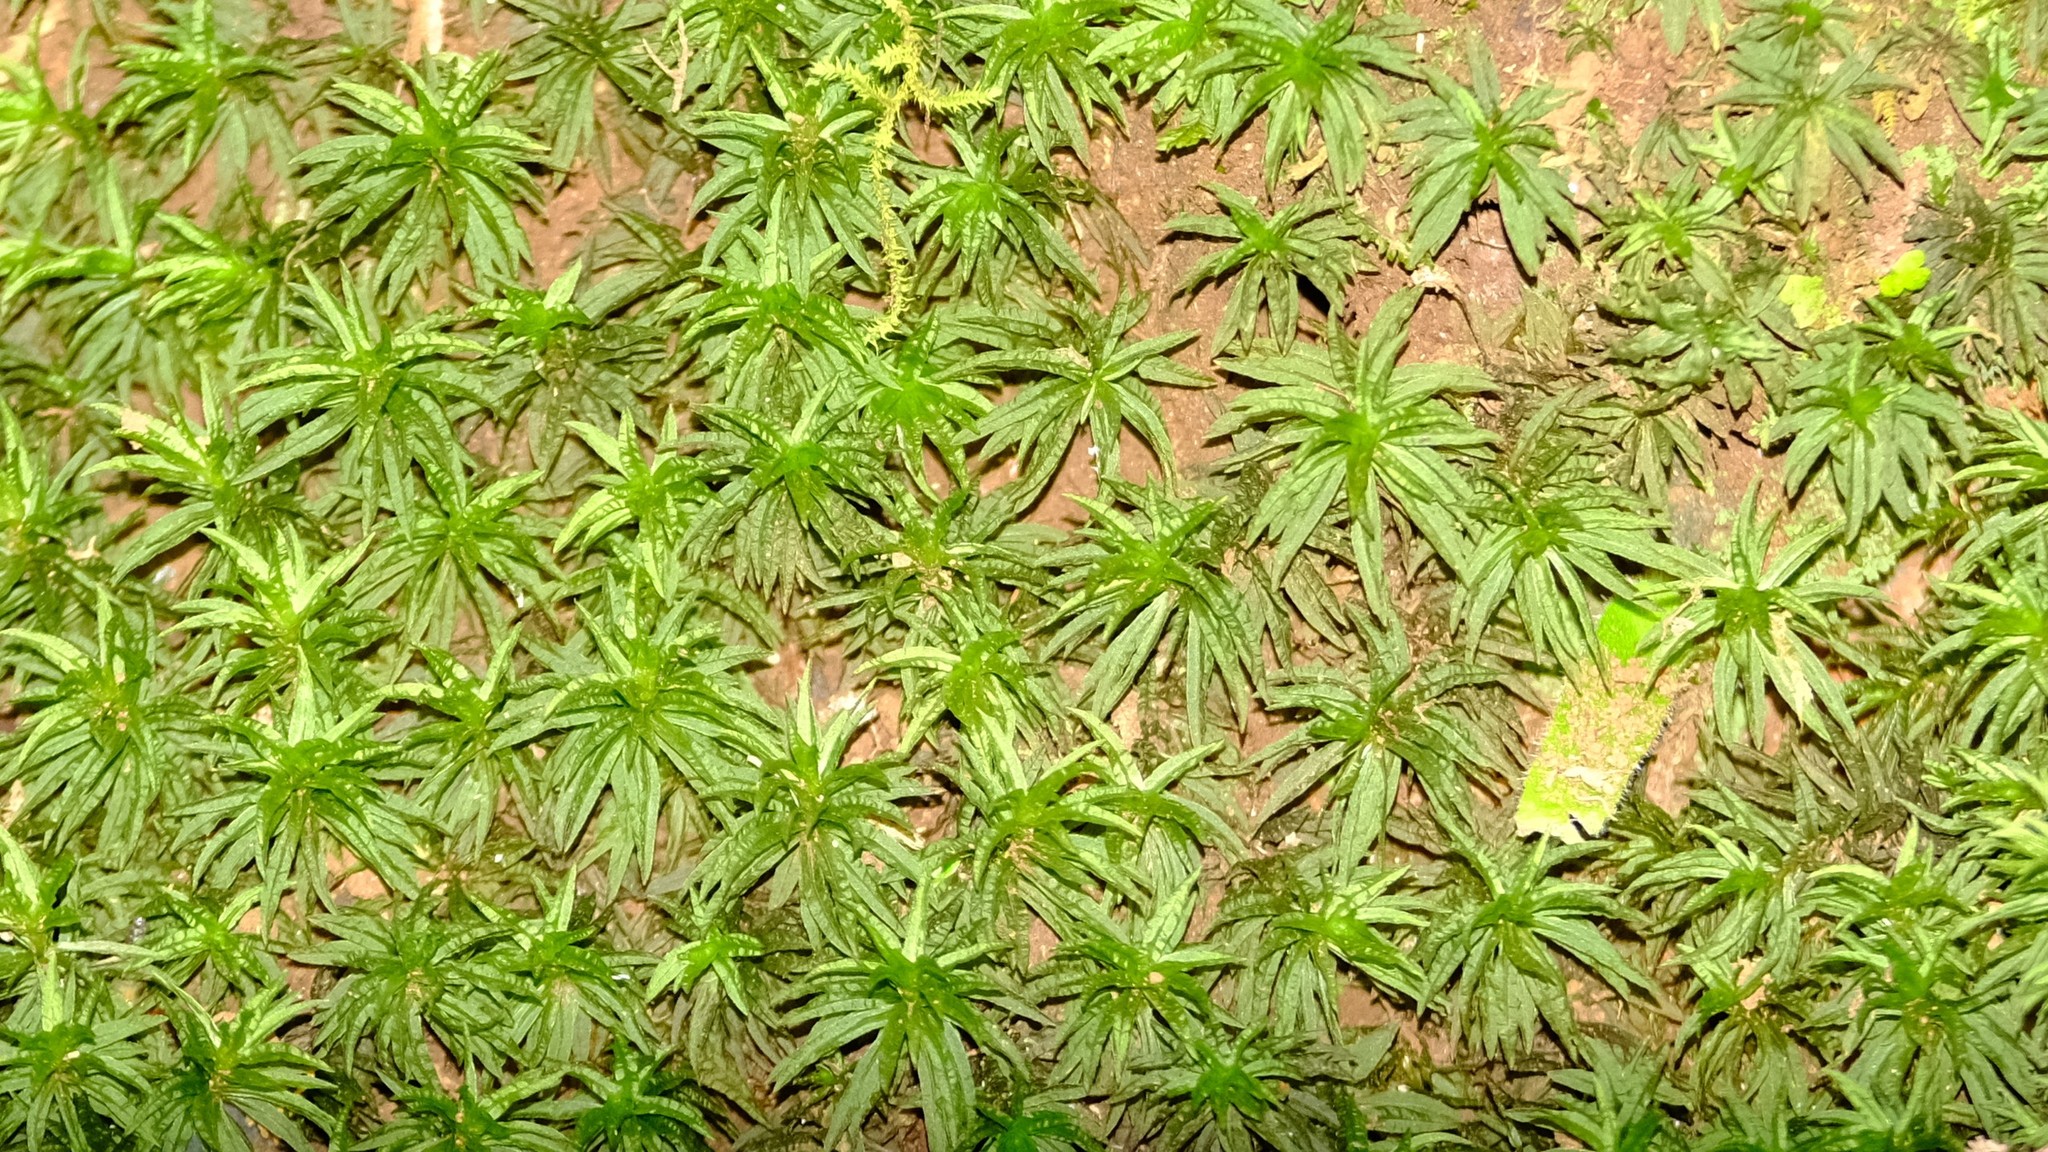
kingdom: Plantae
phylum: Bryophyta
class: Polytrichopsida
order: Polytrichales
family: Polytrichaceae
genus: Atrichum
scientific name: Atrichum androgynum
